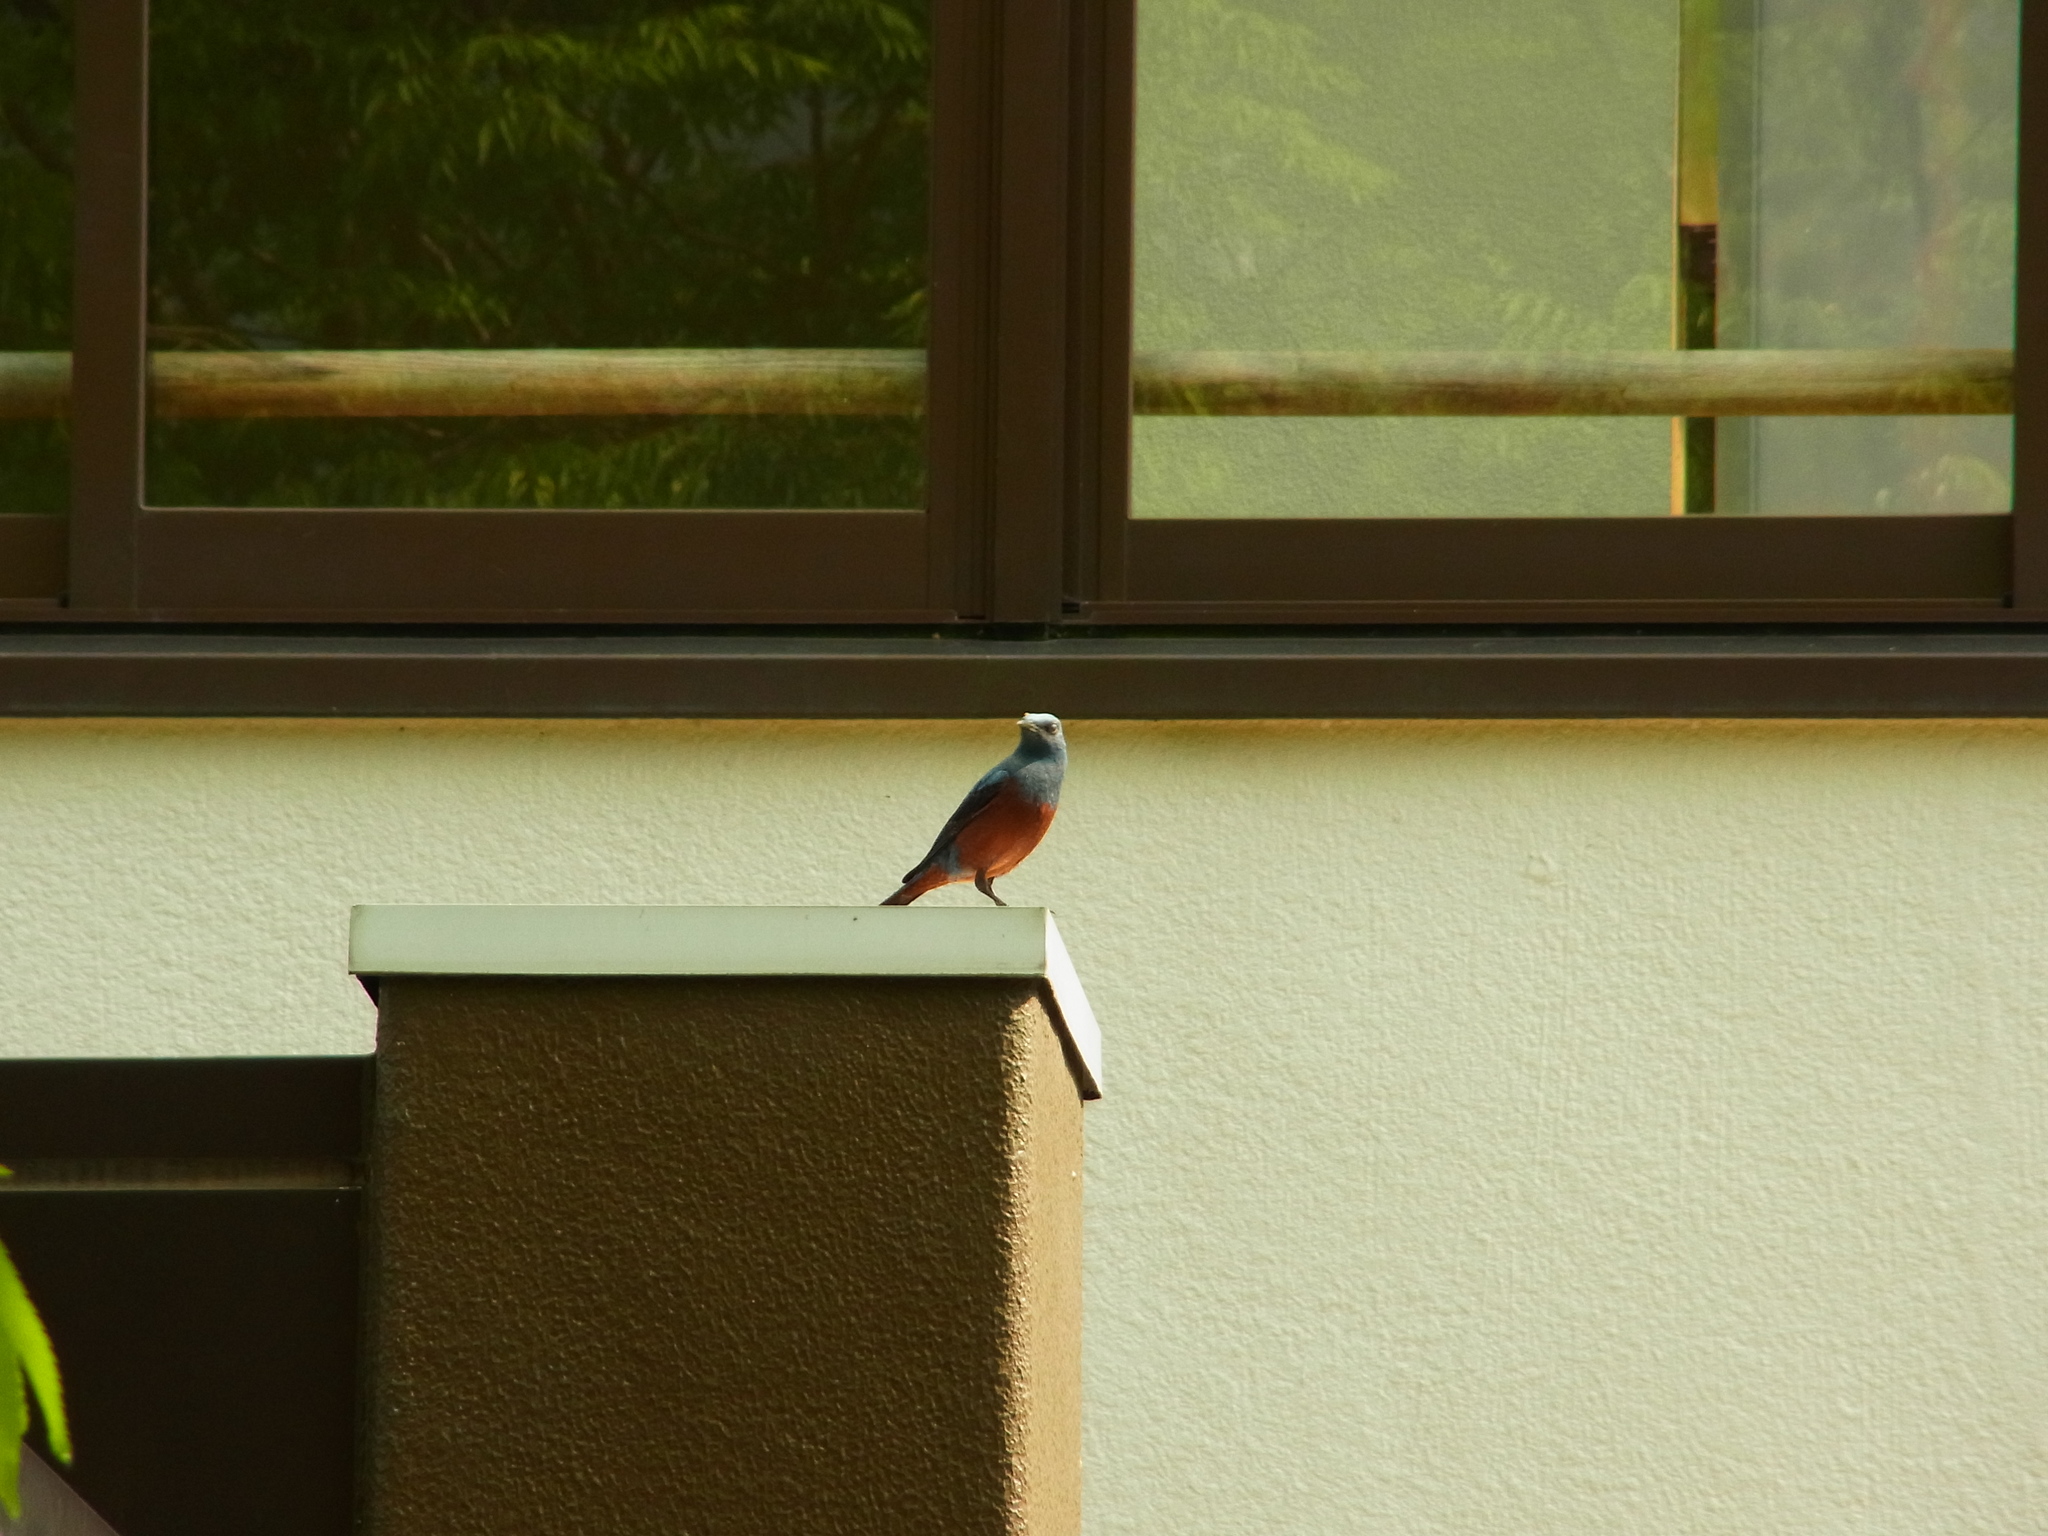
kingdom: Animalia
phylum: Chordata
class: Aves
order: Passeriformes
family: Muscicapidae
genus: Monticola
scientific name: Monticola solitarius
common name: Blue rock thrush
